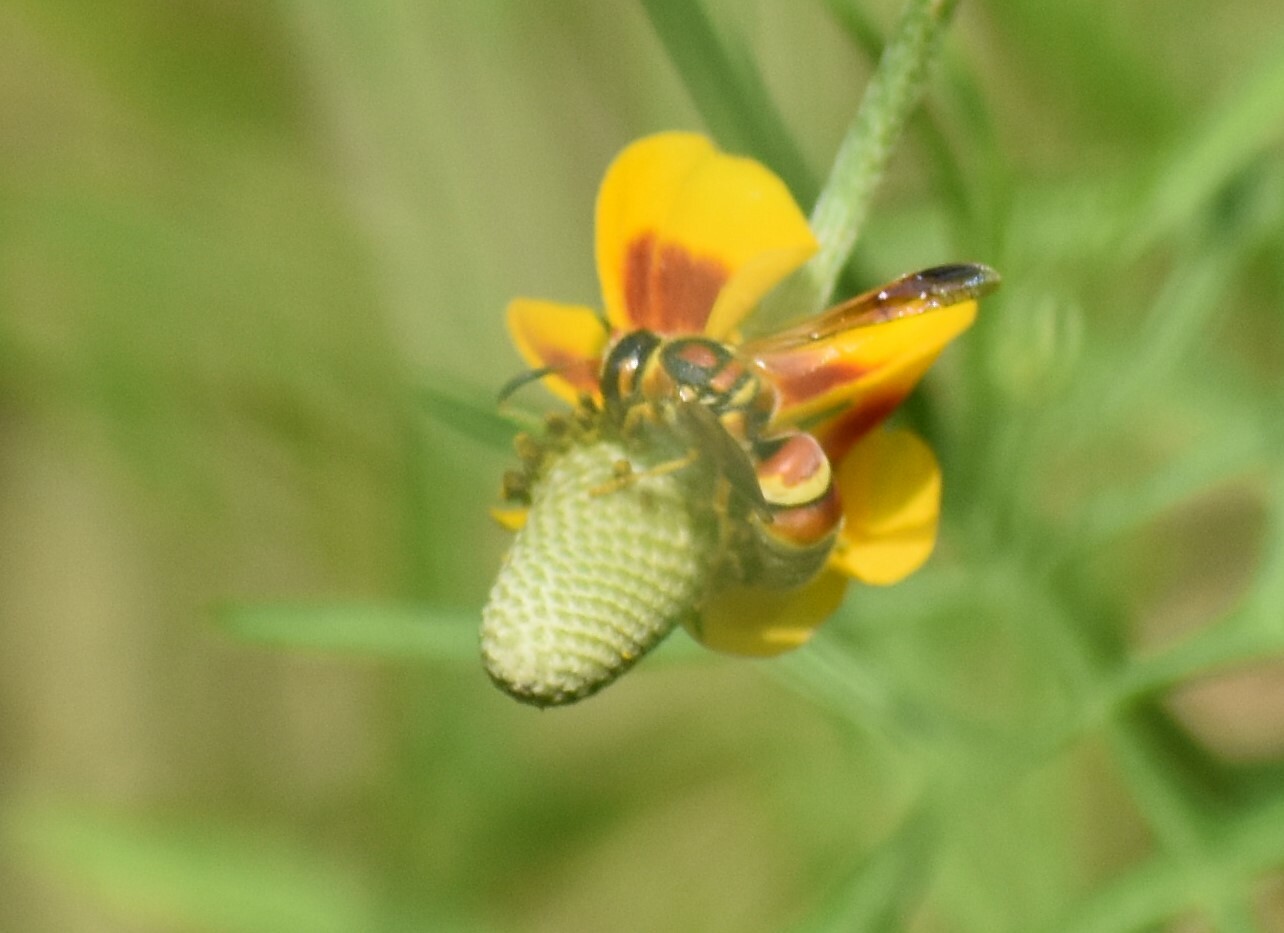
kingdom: Animalia
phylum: Arthropoda
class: Insecta
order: Hymenoptera
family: Eumenidae
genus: Euodynerus
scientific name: Euodynerus pratensis
